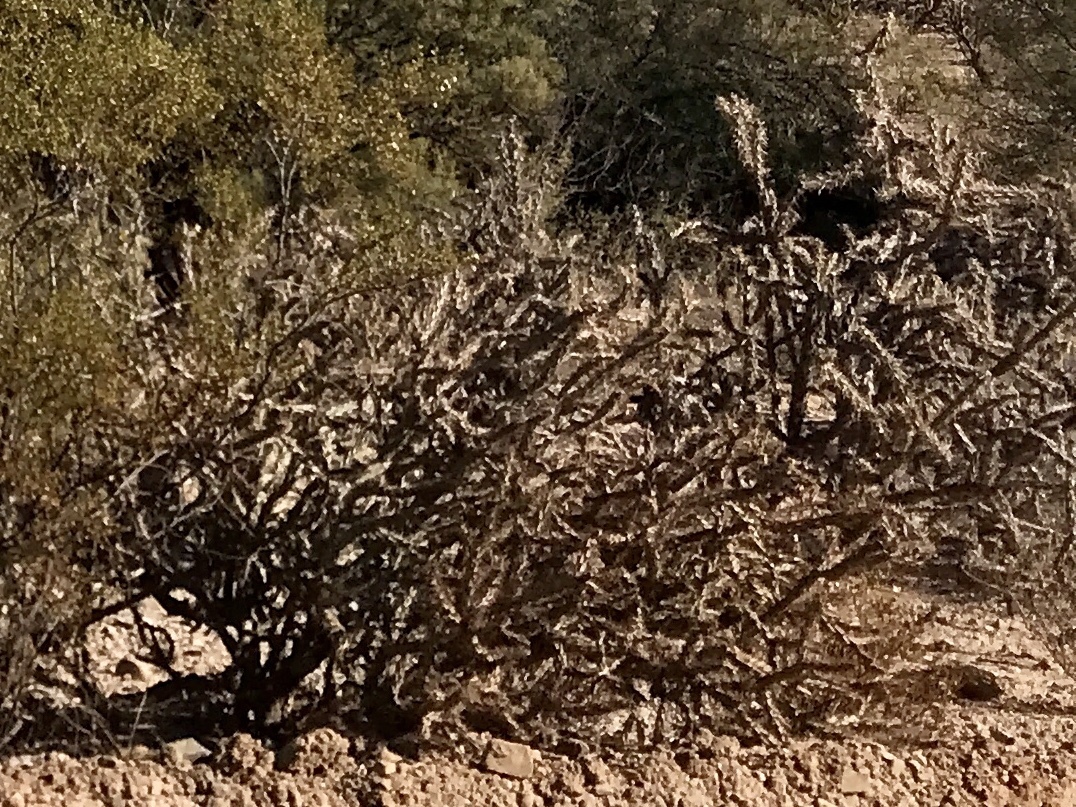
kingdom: Plantae
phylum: Tracheophyta
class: Magnoliopsida
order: Caryophyllales
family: Cactaceae
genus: Cylindropuntia
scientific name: Cylindropuntia thurberi
